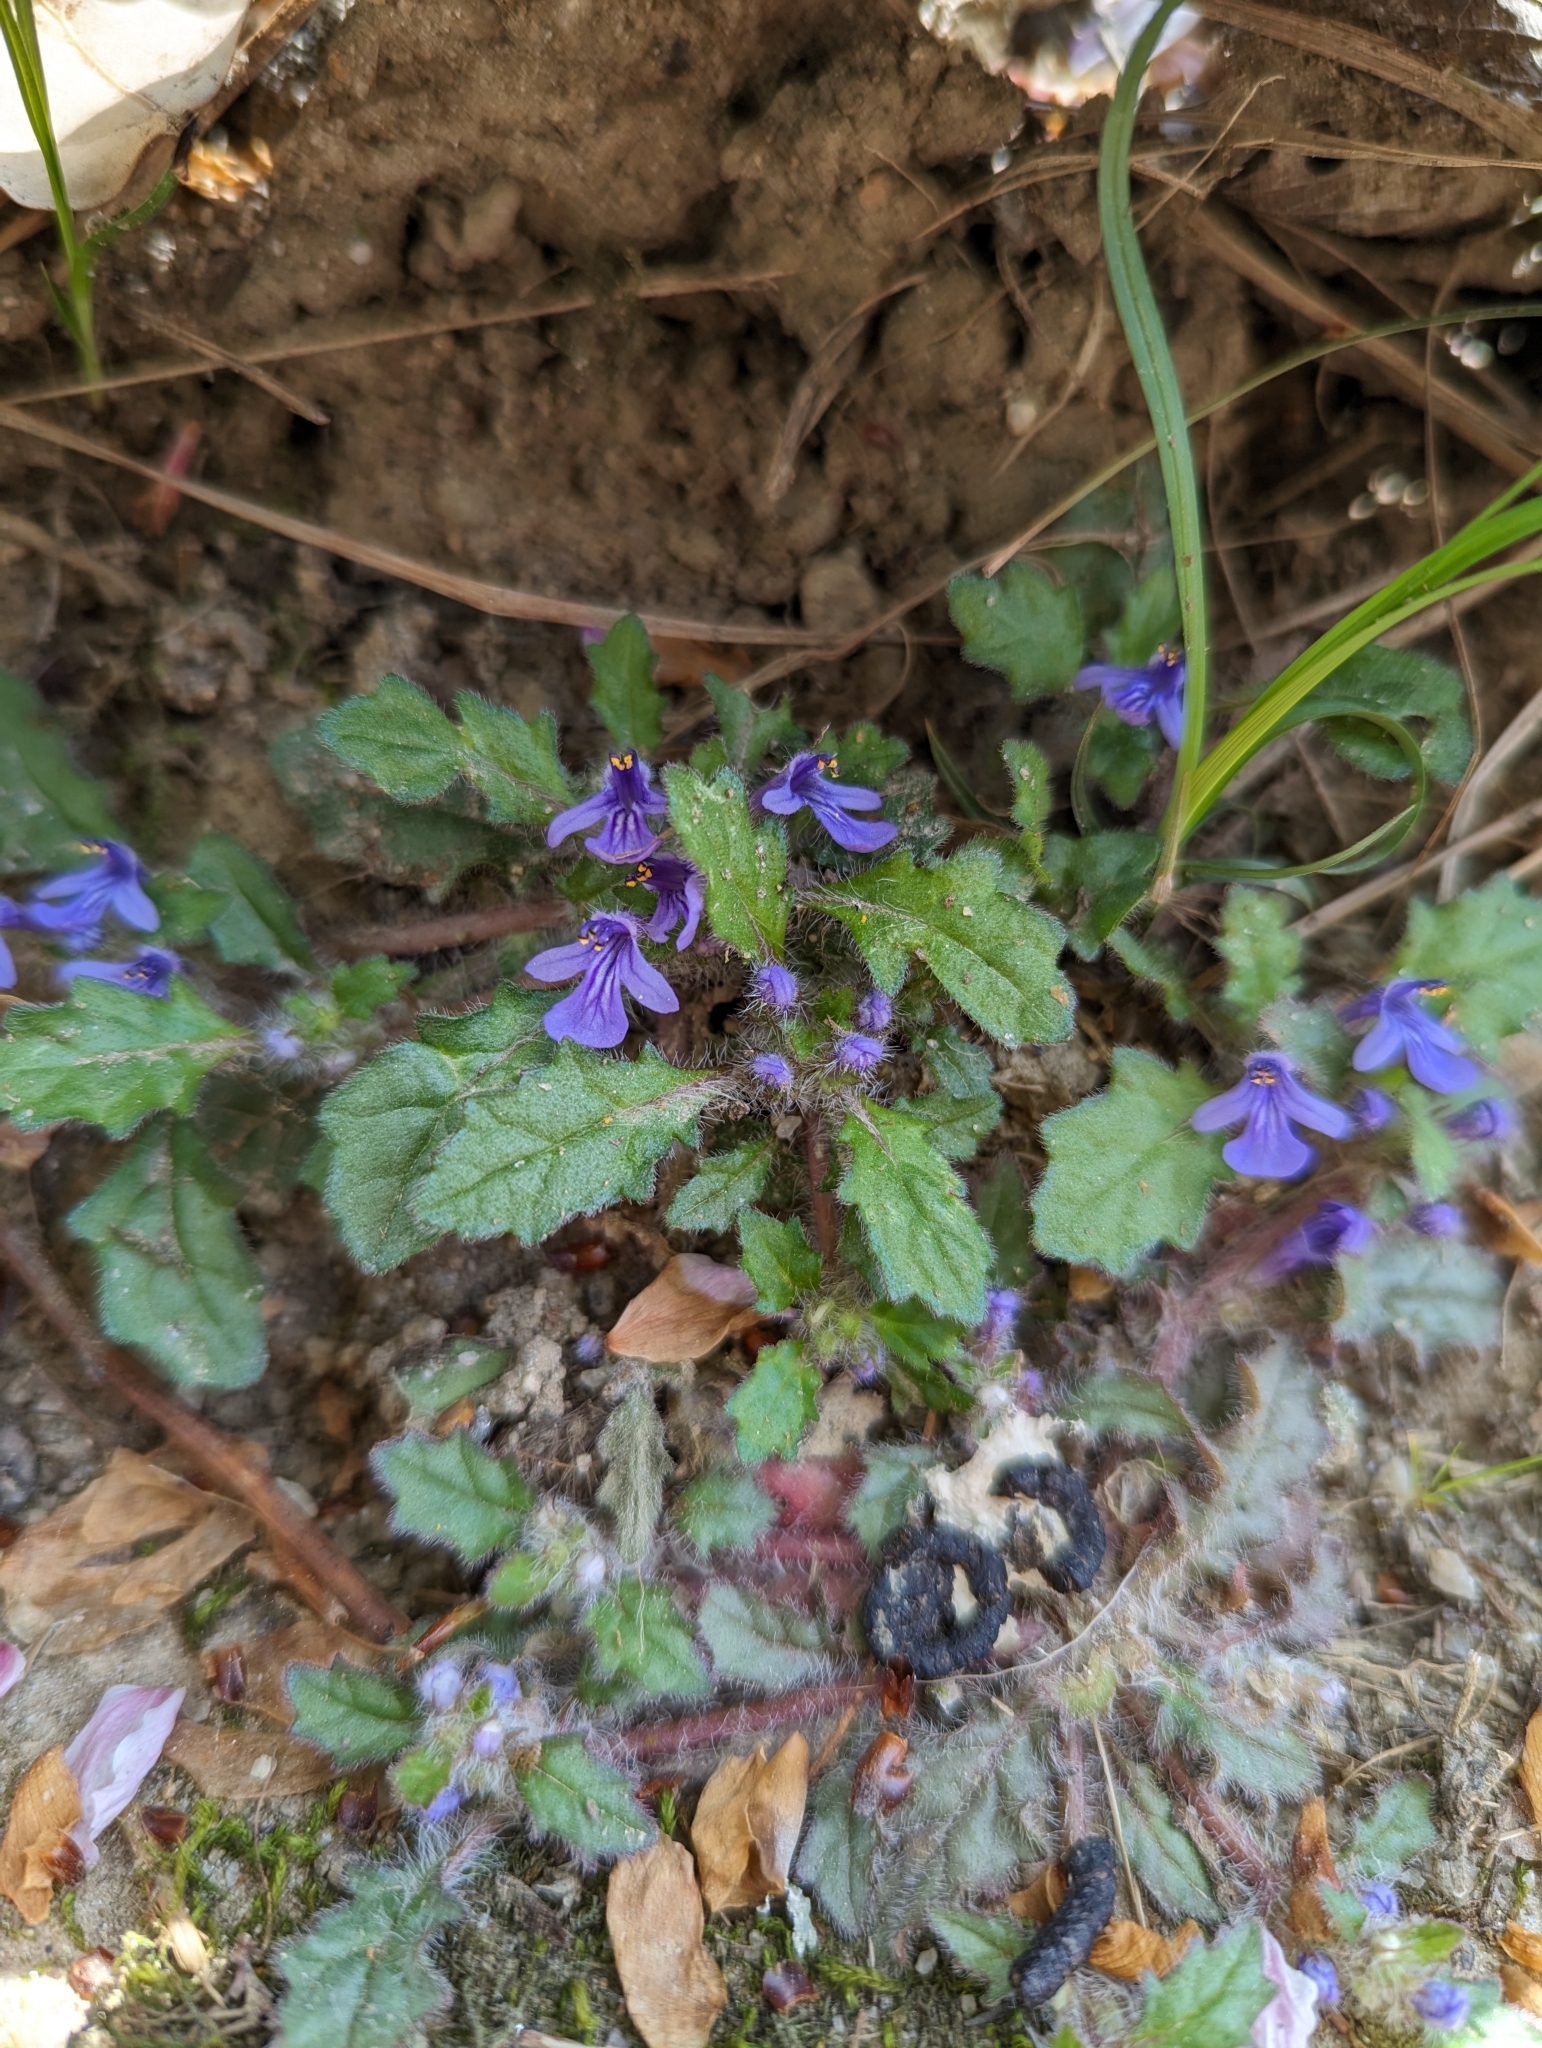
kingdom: Plantae
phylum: Tracheophyta
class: Magnoliopsida
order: Lamiales
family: Lamiaceae
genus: Ajuga
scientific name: Ajuga decumbens
